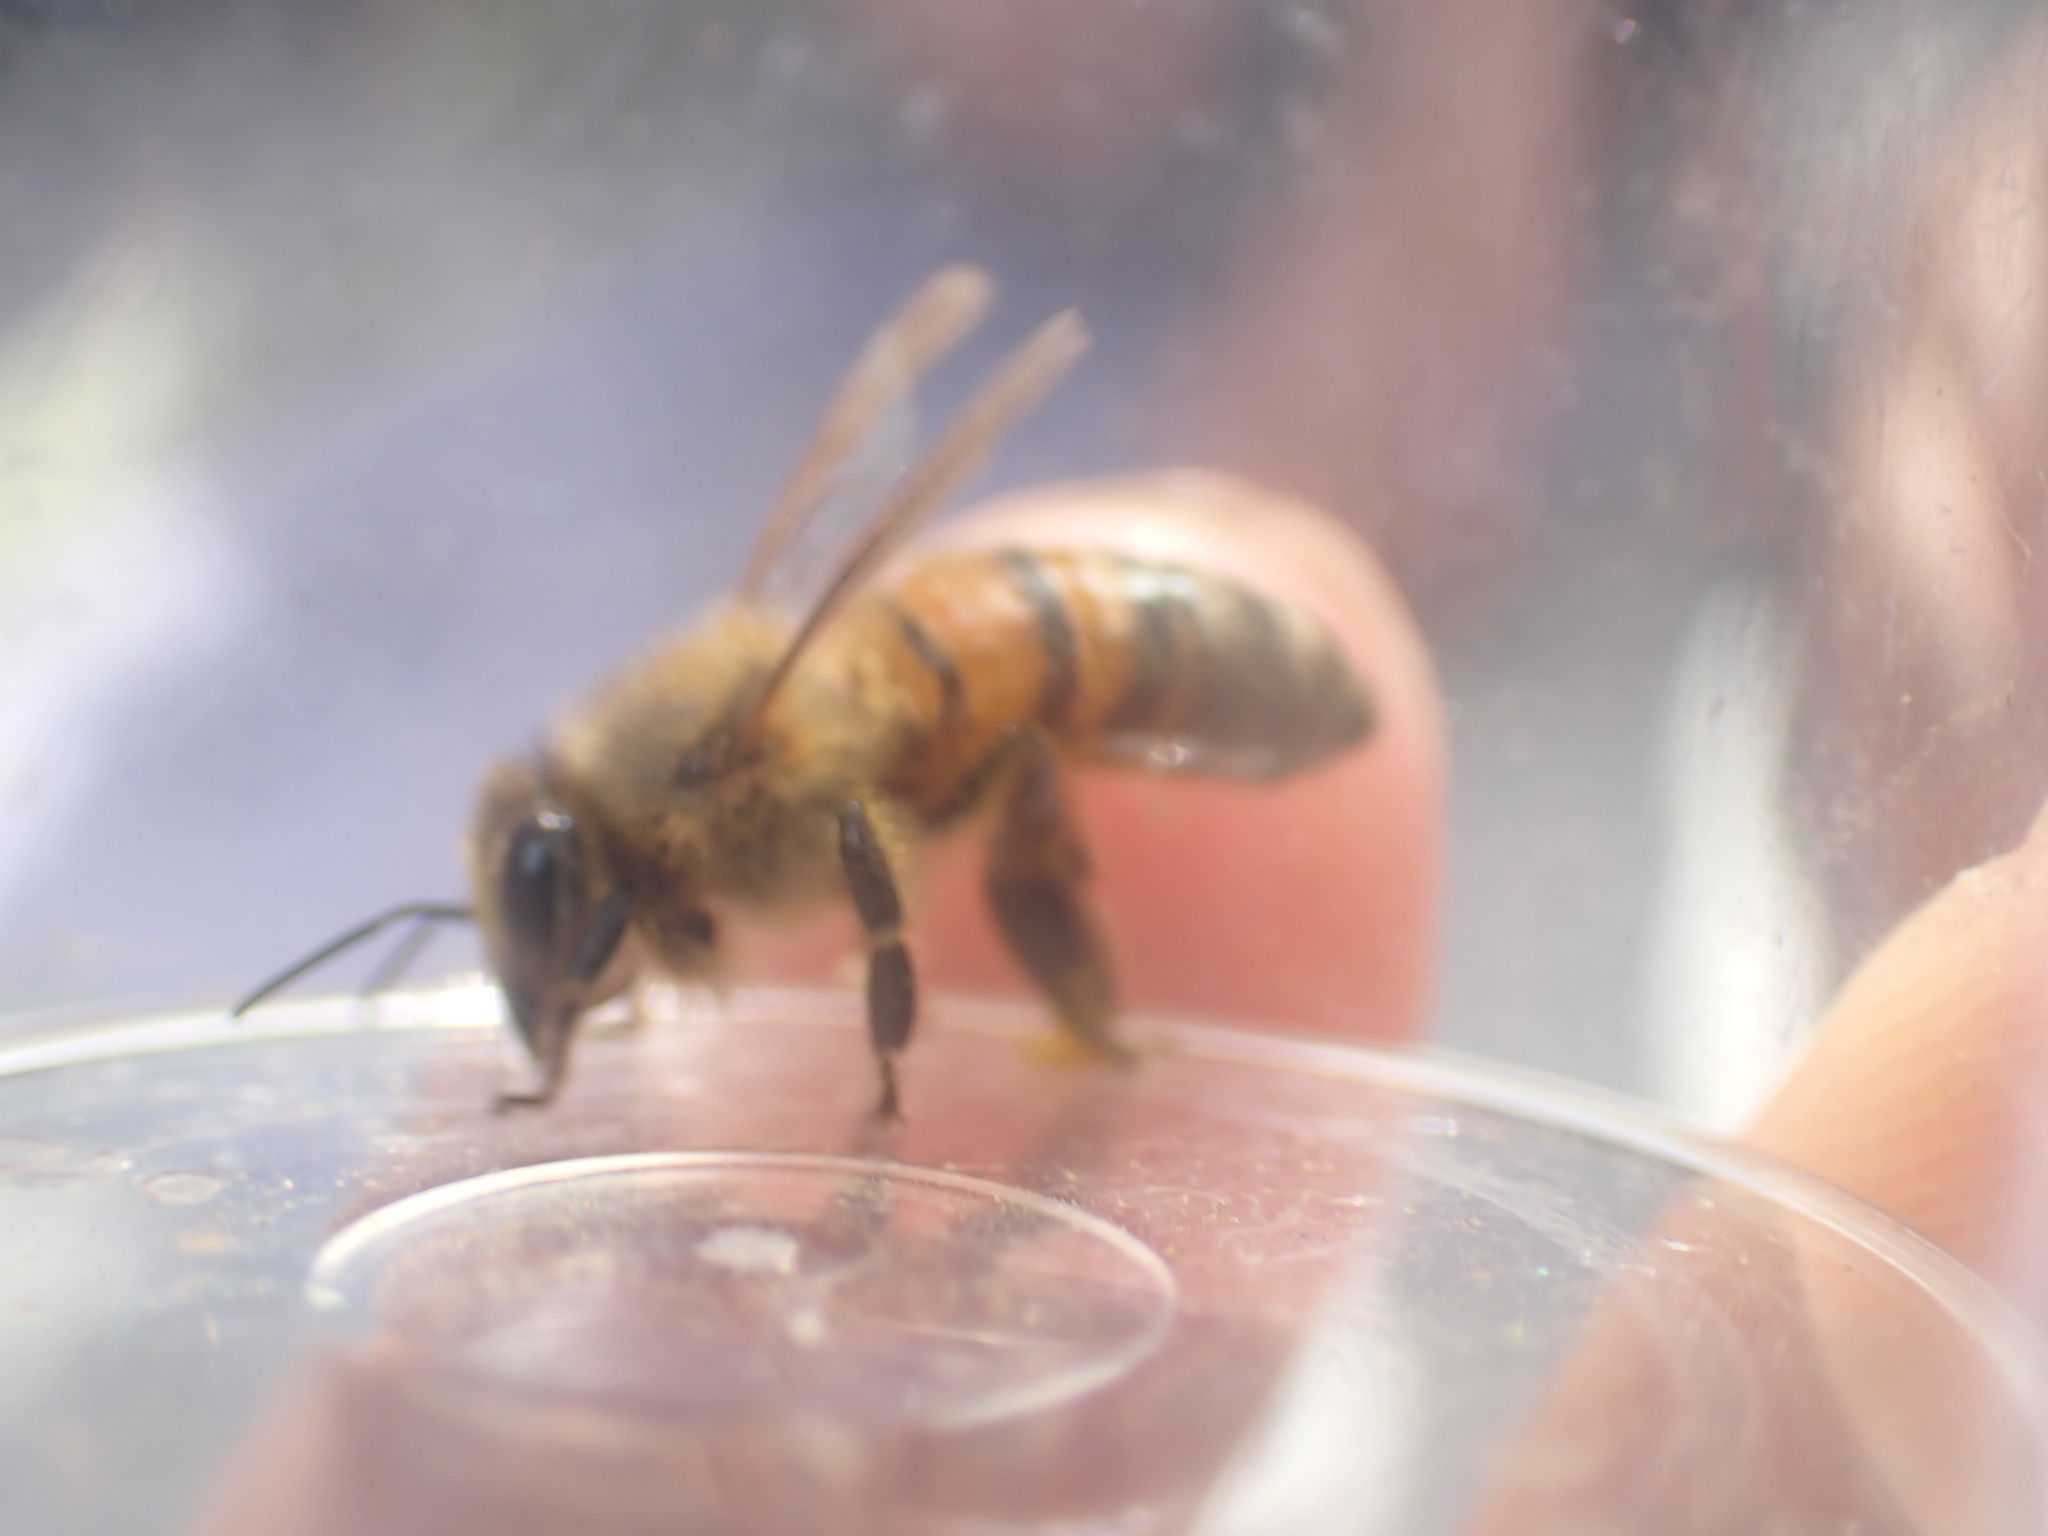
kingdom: Animalia
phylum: Arthropoda
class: Insecta
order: Hymenoptera
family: Apidae
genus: Apis
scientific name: Apis mellifera
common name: Honey bee
